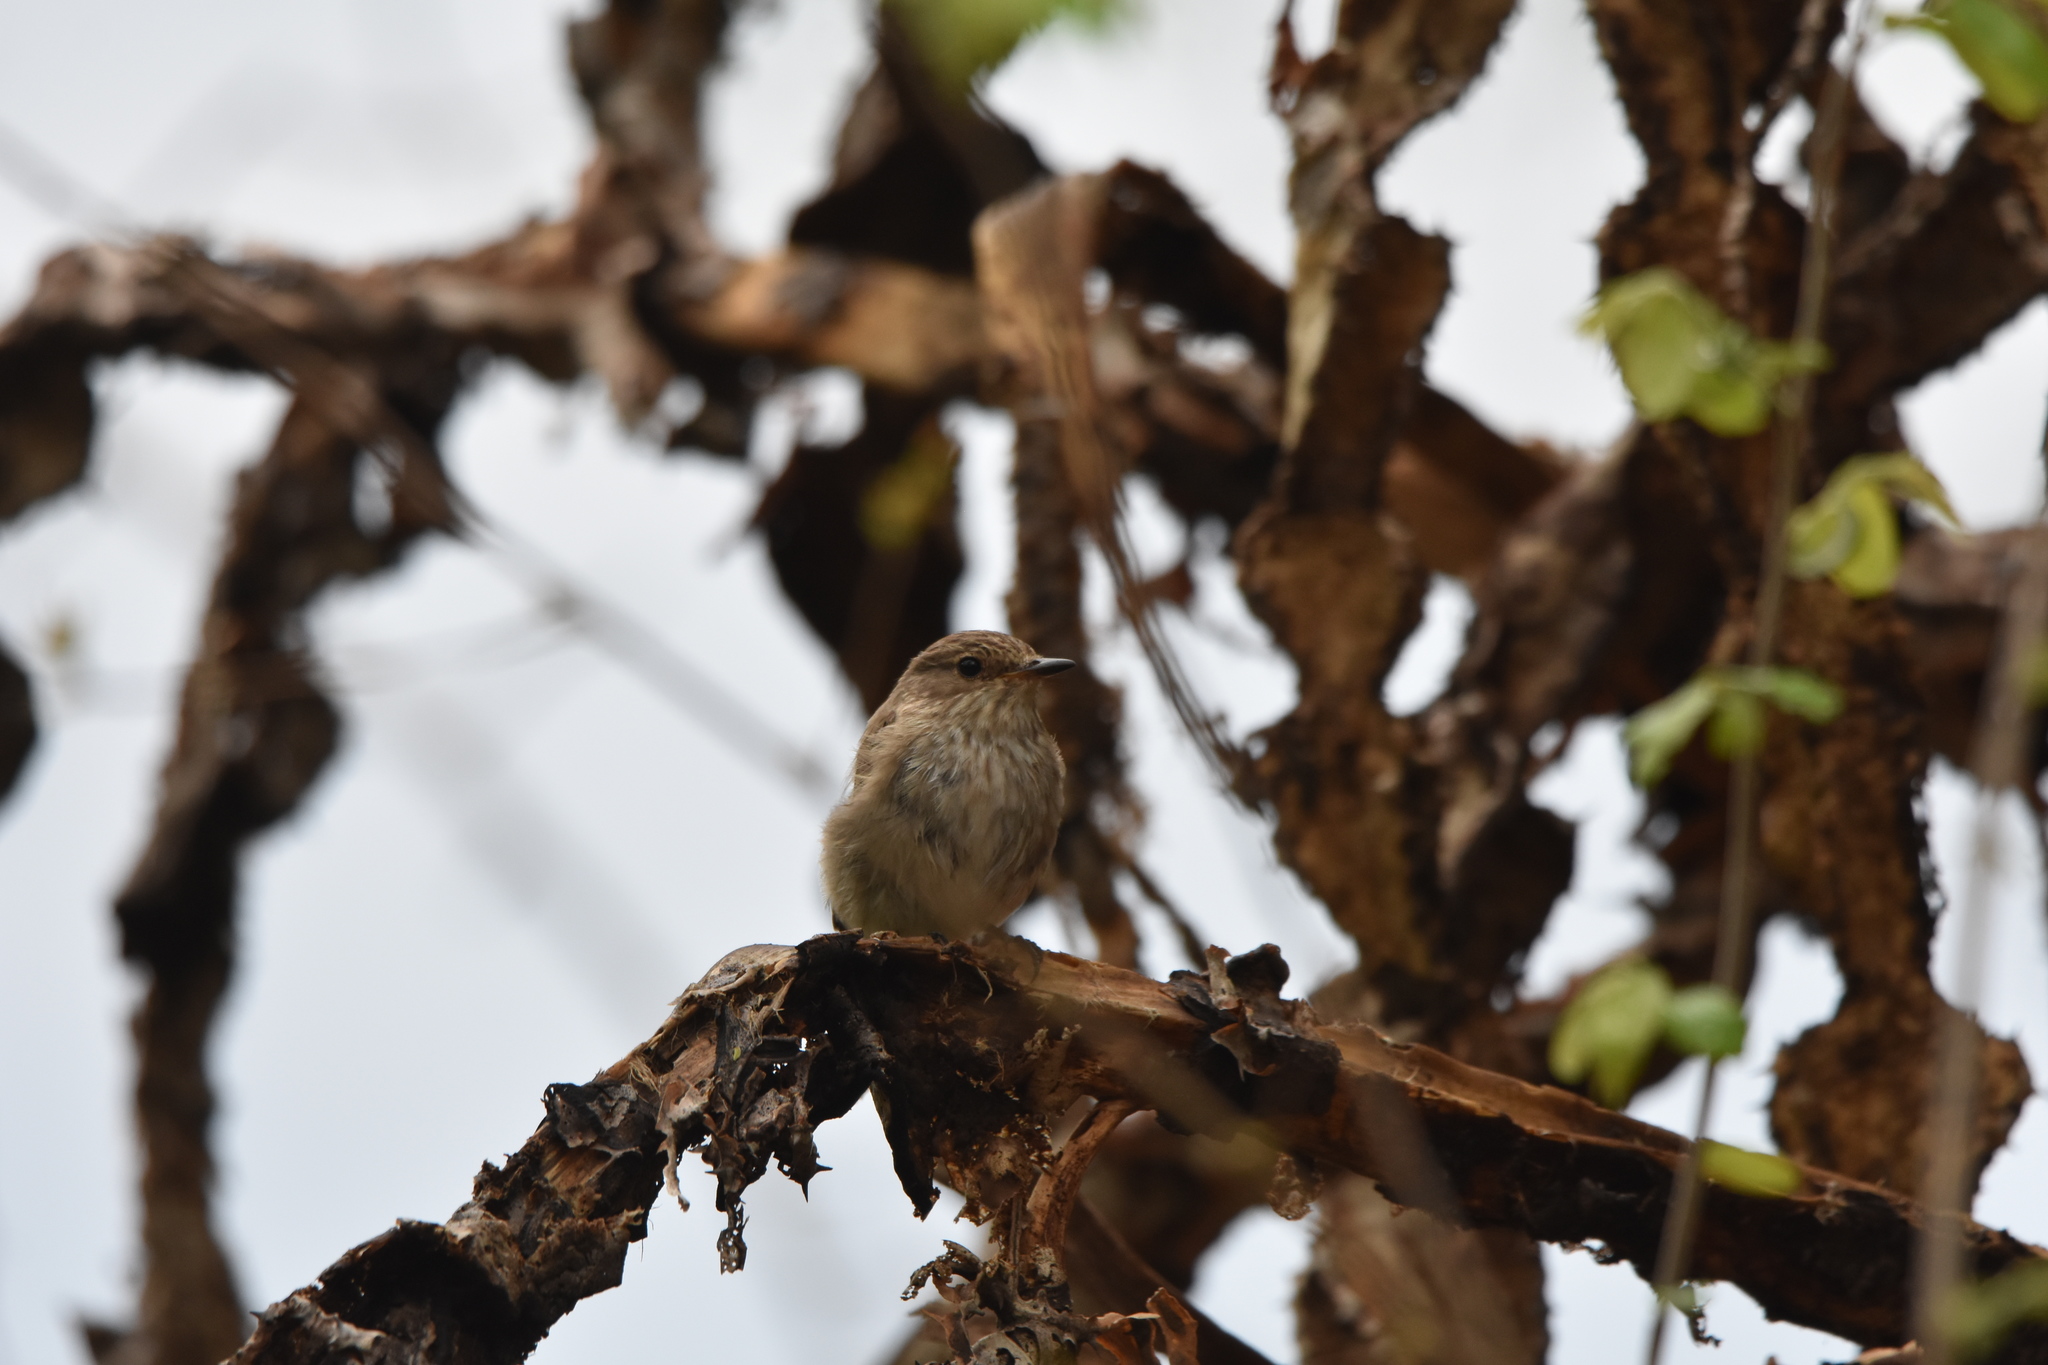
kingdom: Animalia
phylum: Chordata
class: Aves
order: Passeriformes
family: Muscicapidae
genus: Muscicapa
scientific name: Muscicapa striata
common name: Spotted flycatcher
